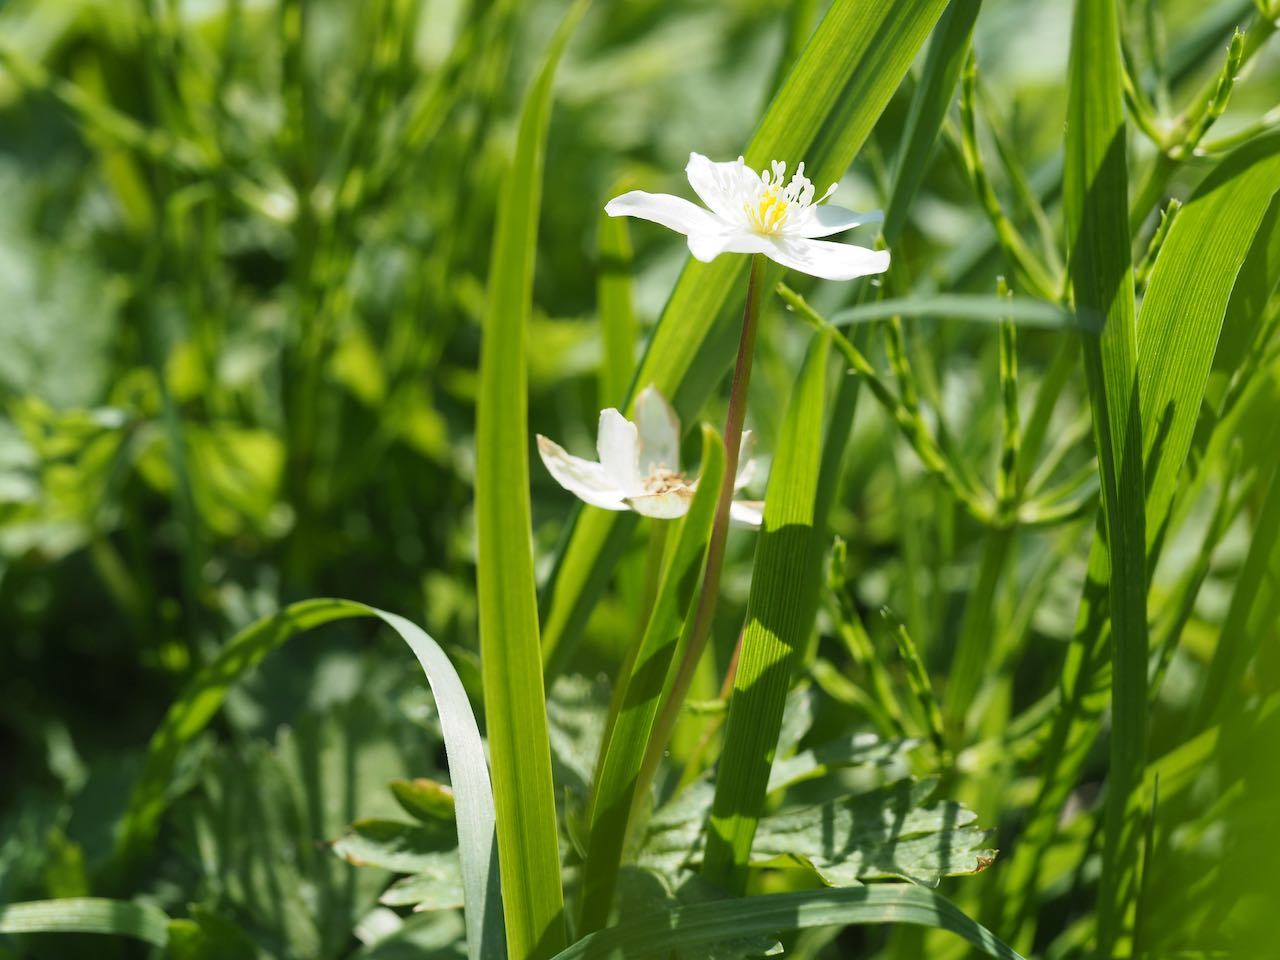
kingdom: Plantae
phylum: Tracheophyta
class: Magnoliopsida
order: Ranunculales
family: Ranunculaceae
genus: Anemonastrum
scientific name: Anemonastrum flaccidum
